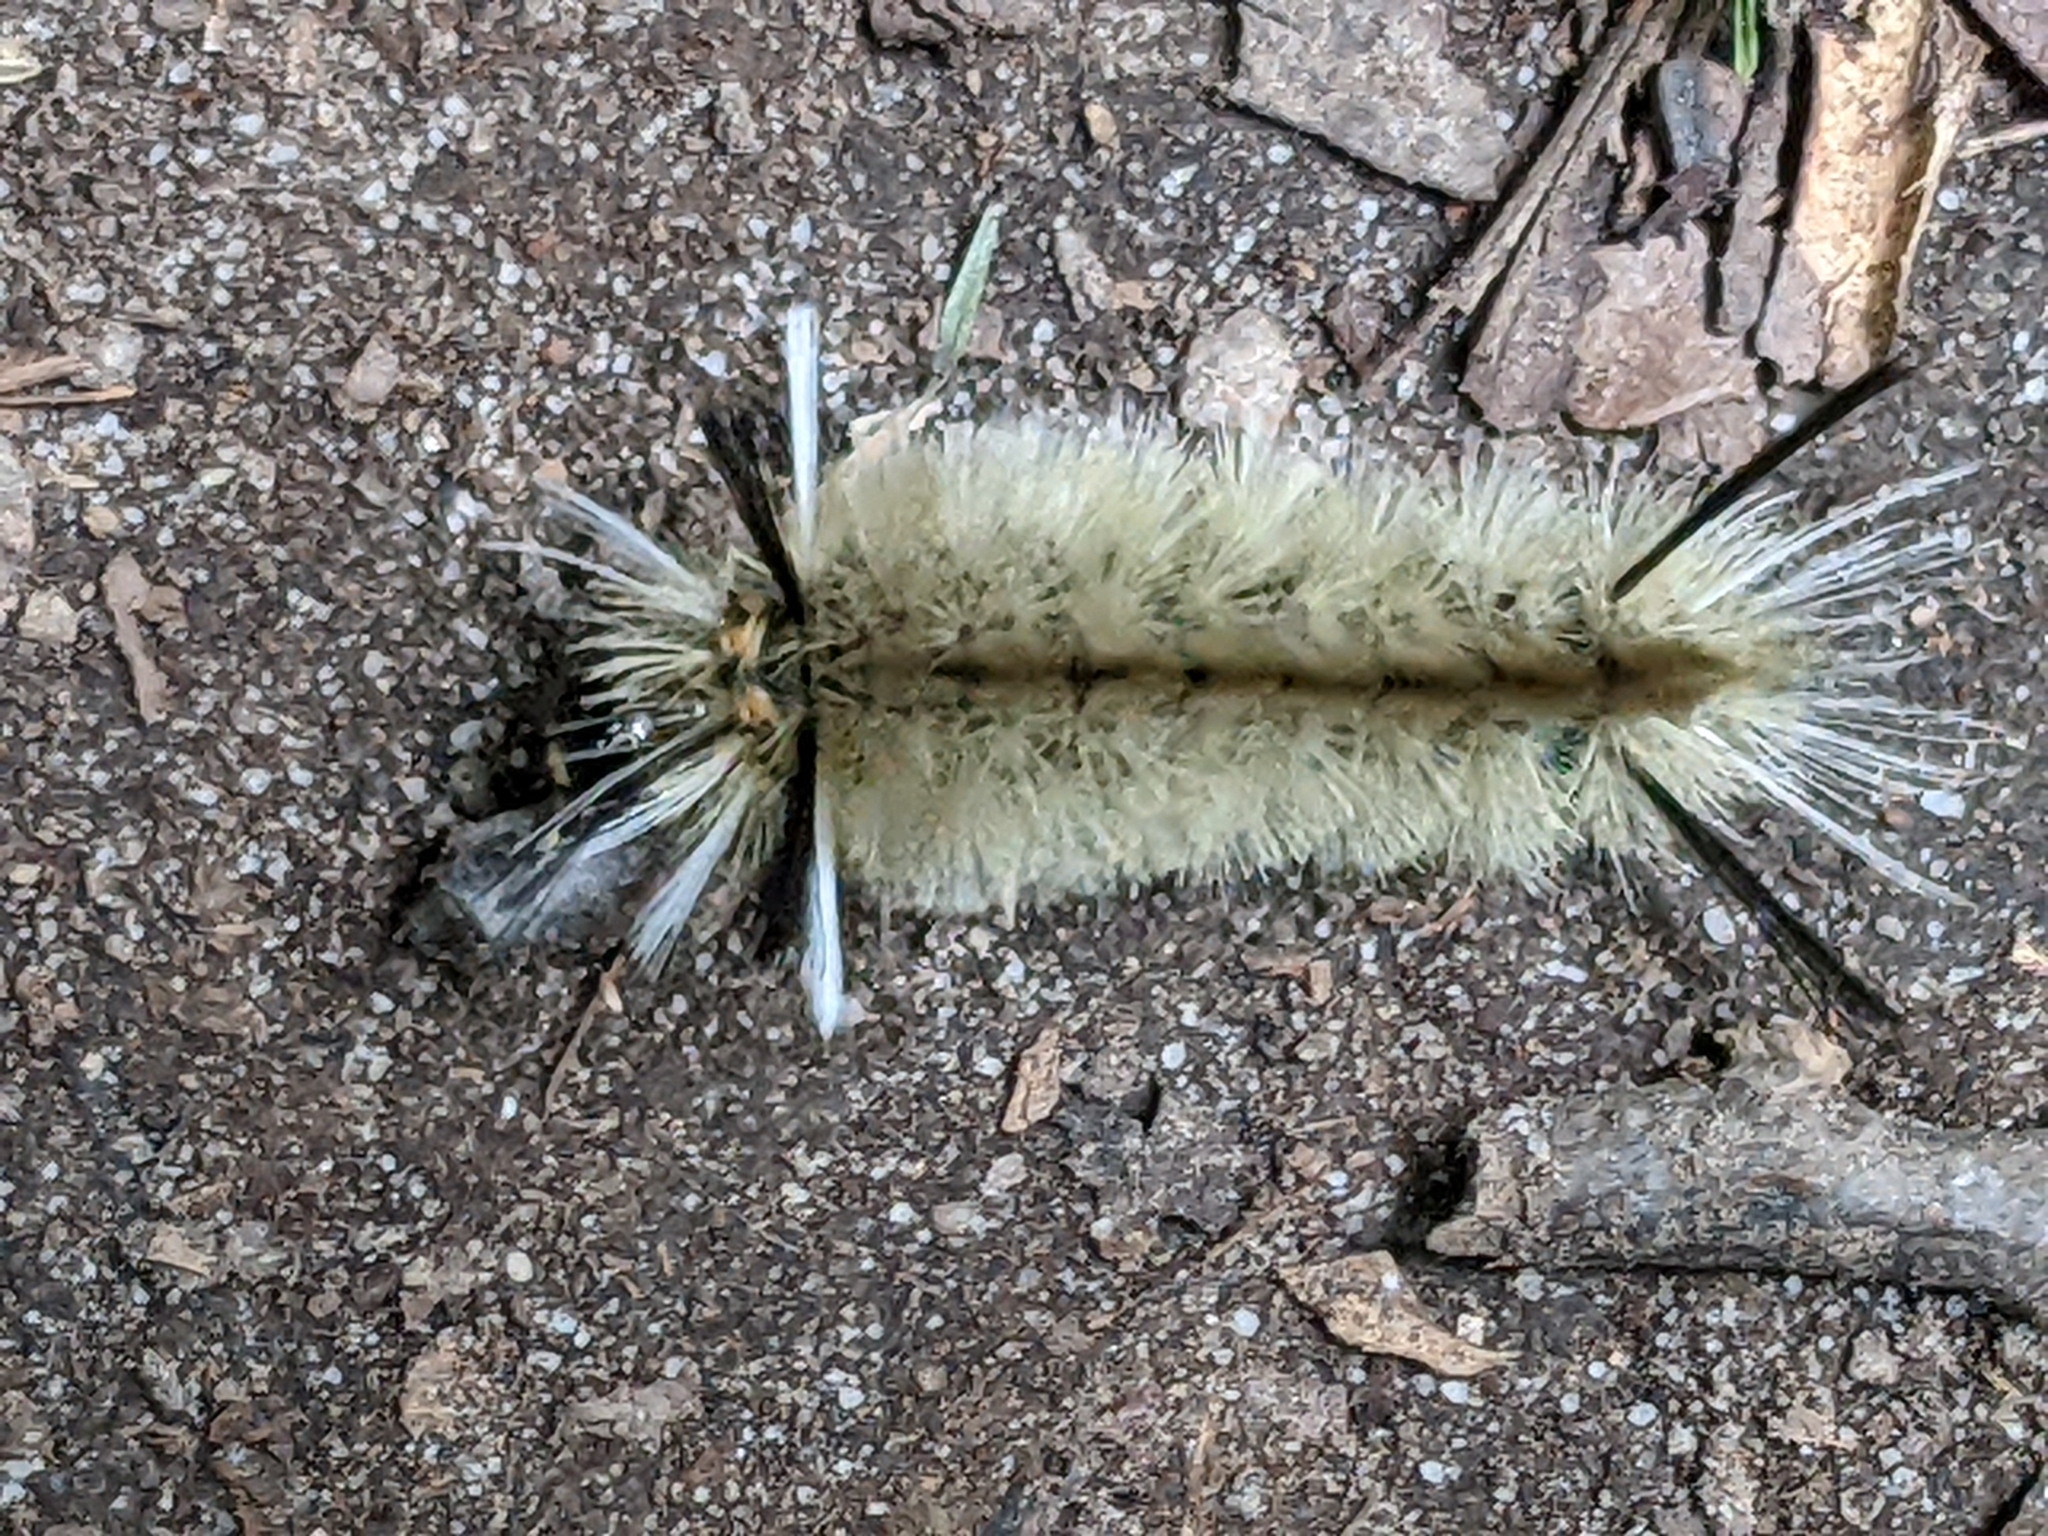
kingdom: Animalia
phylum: Arthropoda
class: Insecta
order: Lepidoptera
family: Erebidae
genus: Halysidota
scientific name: Halysidota tessellaris
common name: Banded tussock moth
